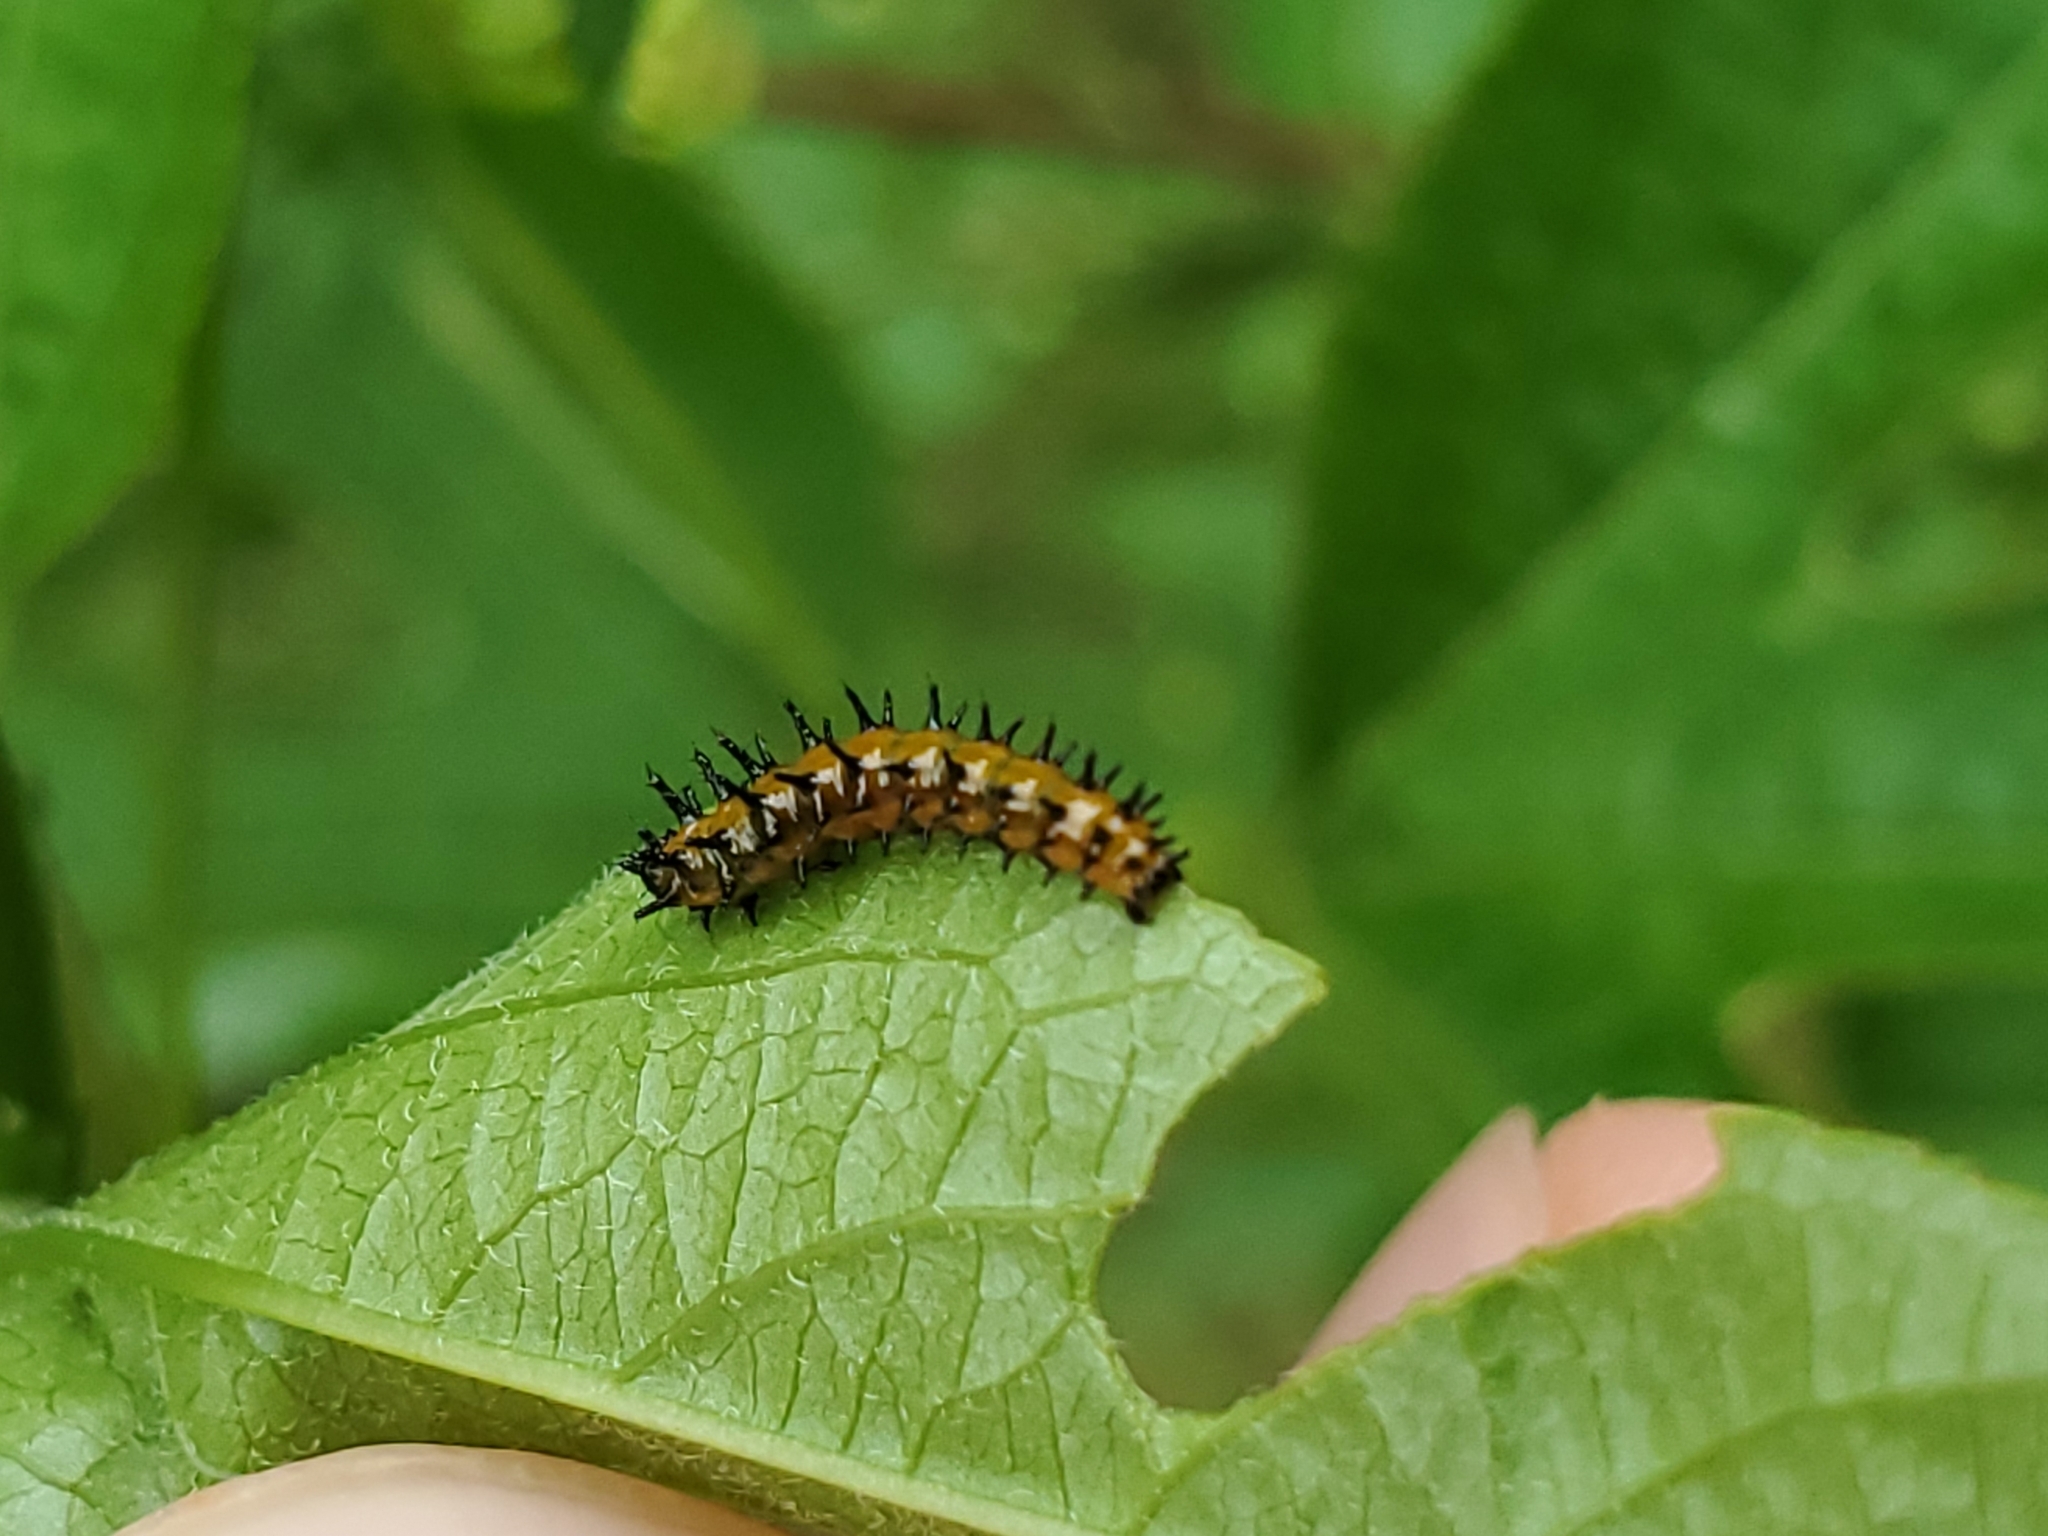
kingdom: Animalia
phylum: Arthropoda
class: Insecta
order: Lepidoptera
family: Nymphalidae
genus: Dione
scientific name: Dione vanillae
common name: Gulf fritillary
